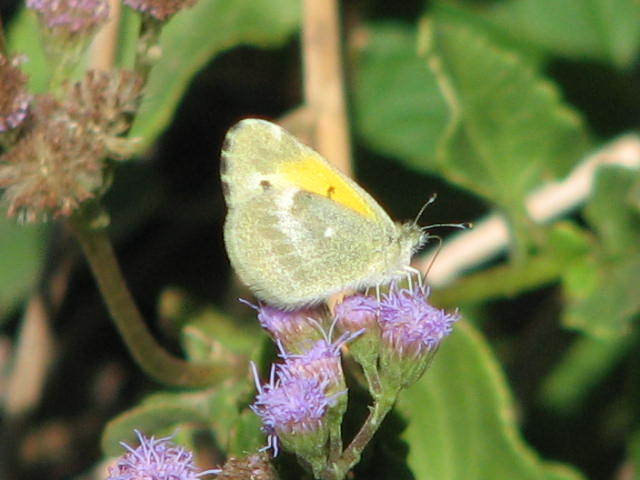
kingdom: Animalia
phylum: Arthropoda
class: Insecta
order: Lepidoptera
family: Pieridae
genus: Nathalis
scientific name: Nathalis iole
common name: Dainty sulphur
